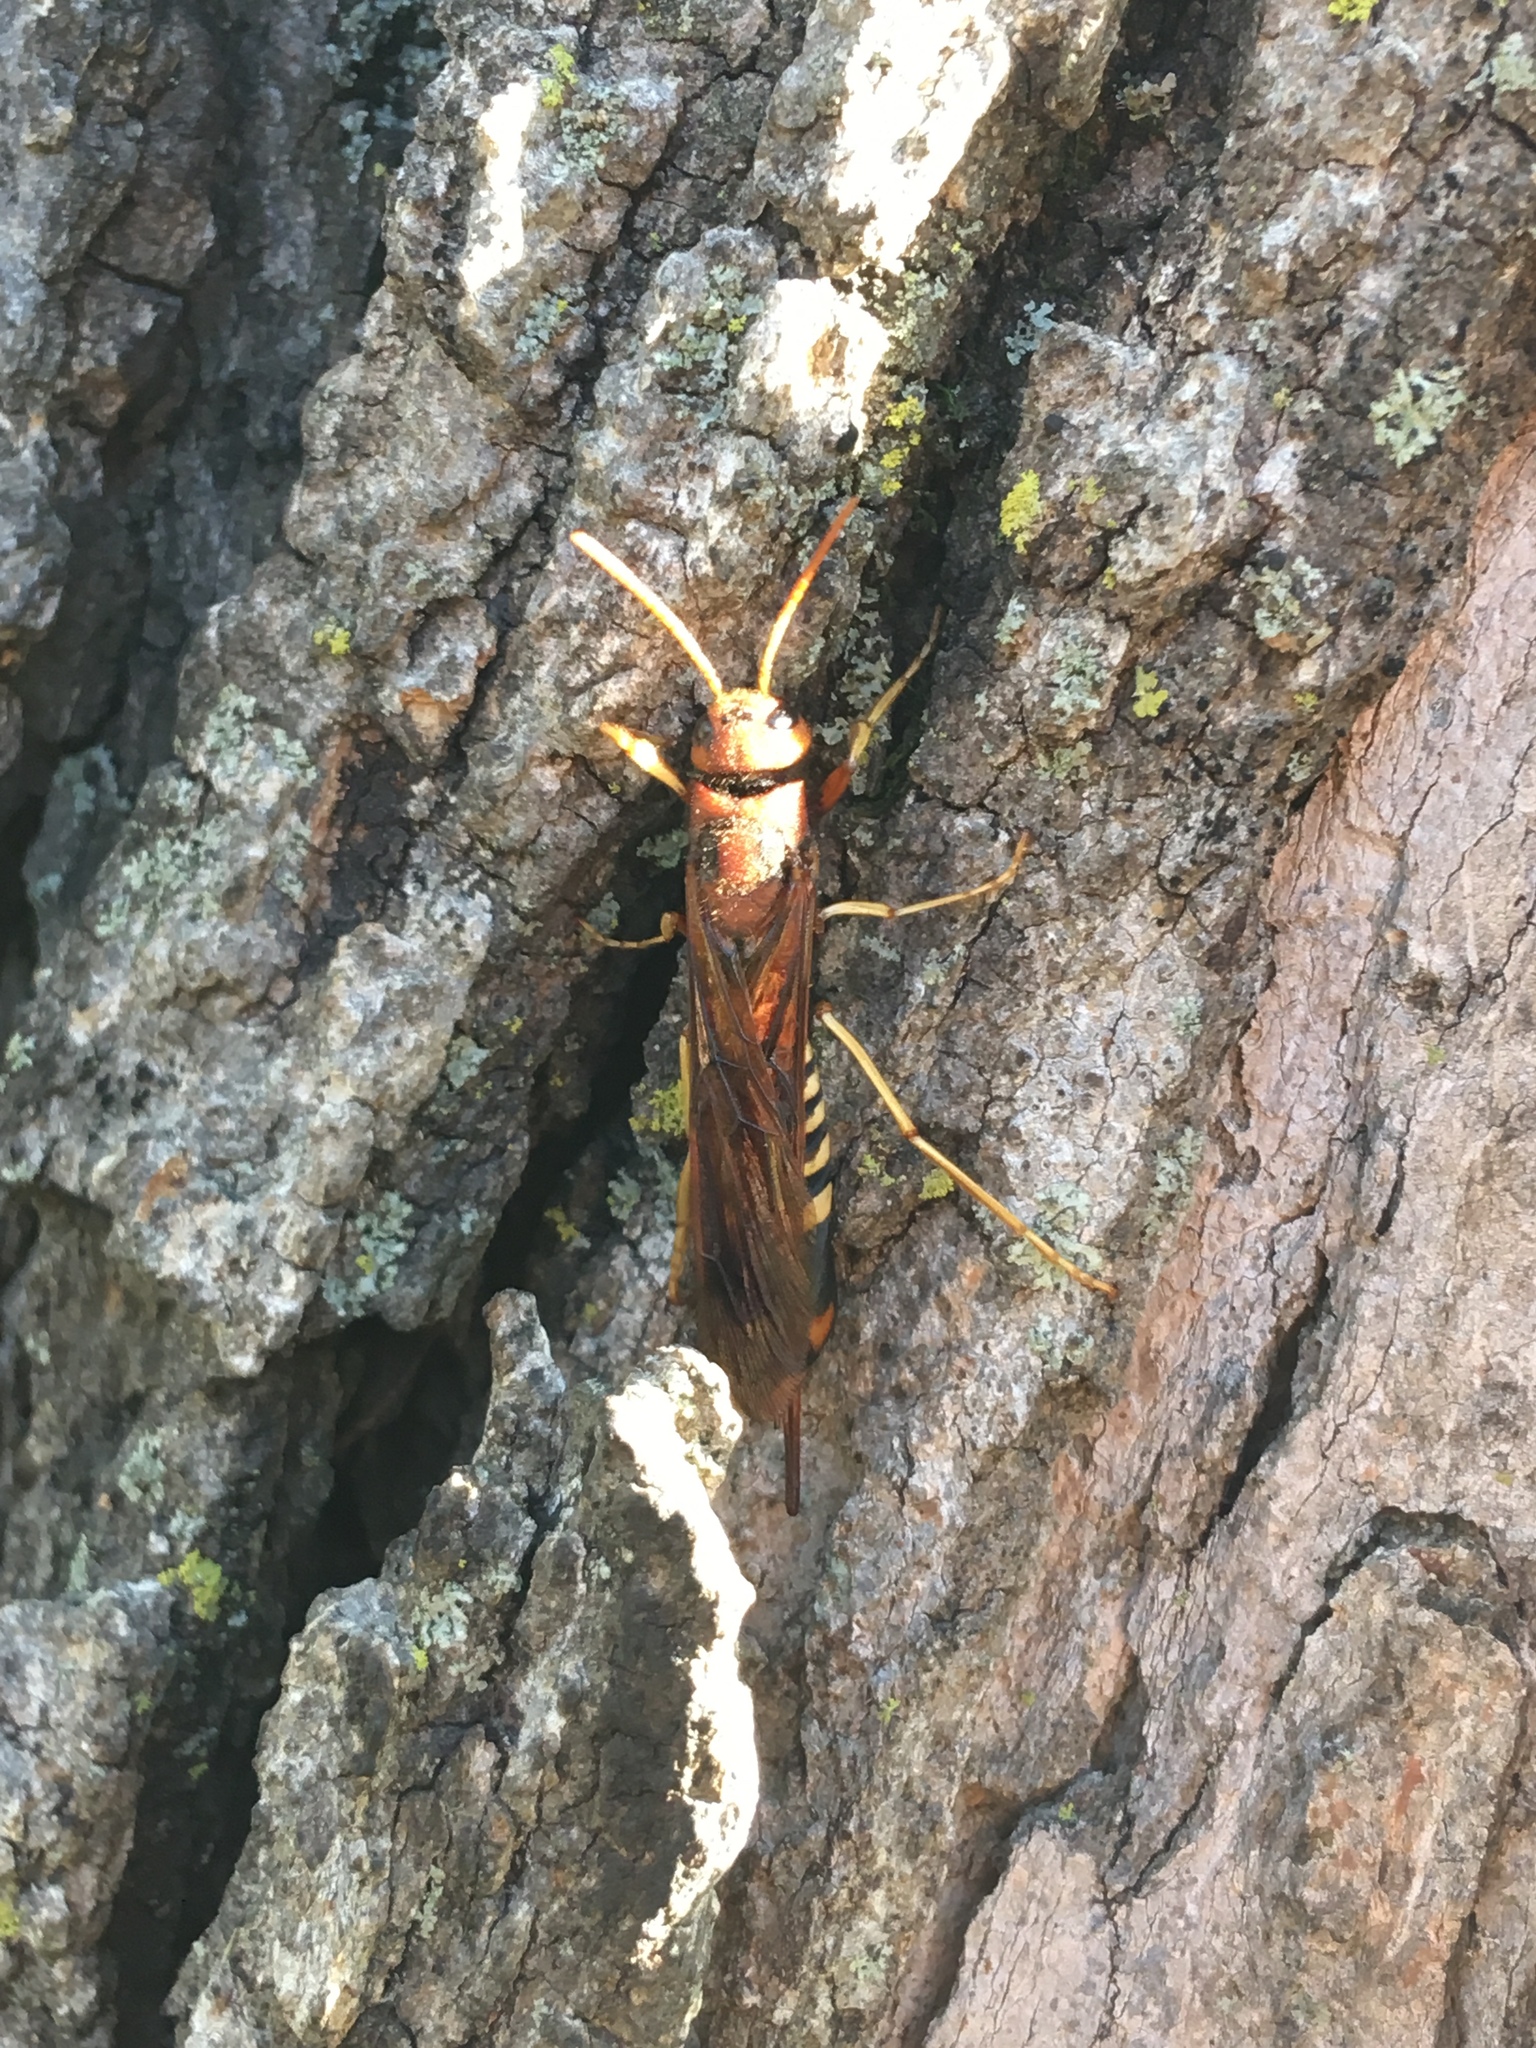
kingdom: Animalia
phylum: Arthropoda
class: Insecta
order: Hymenoptera
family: Siricidae
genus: Tremex
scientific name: Tremex columba
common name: Wasp
